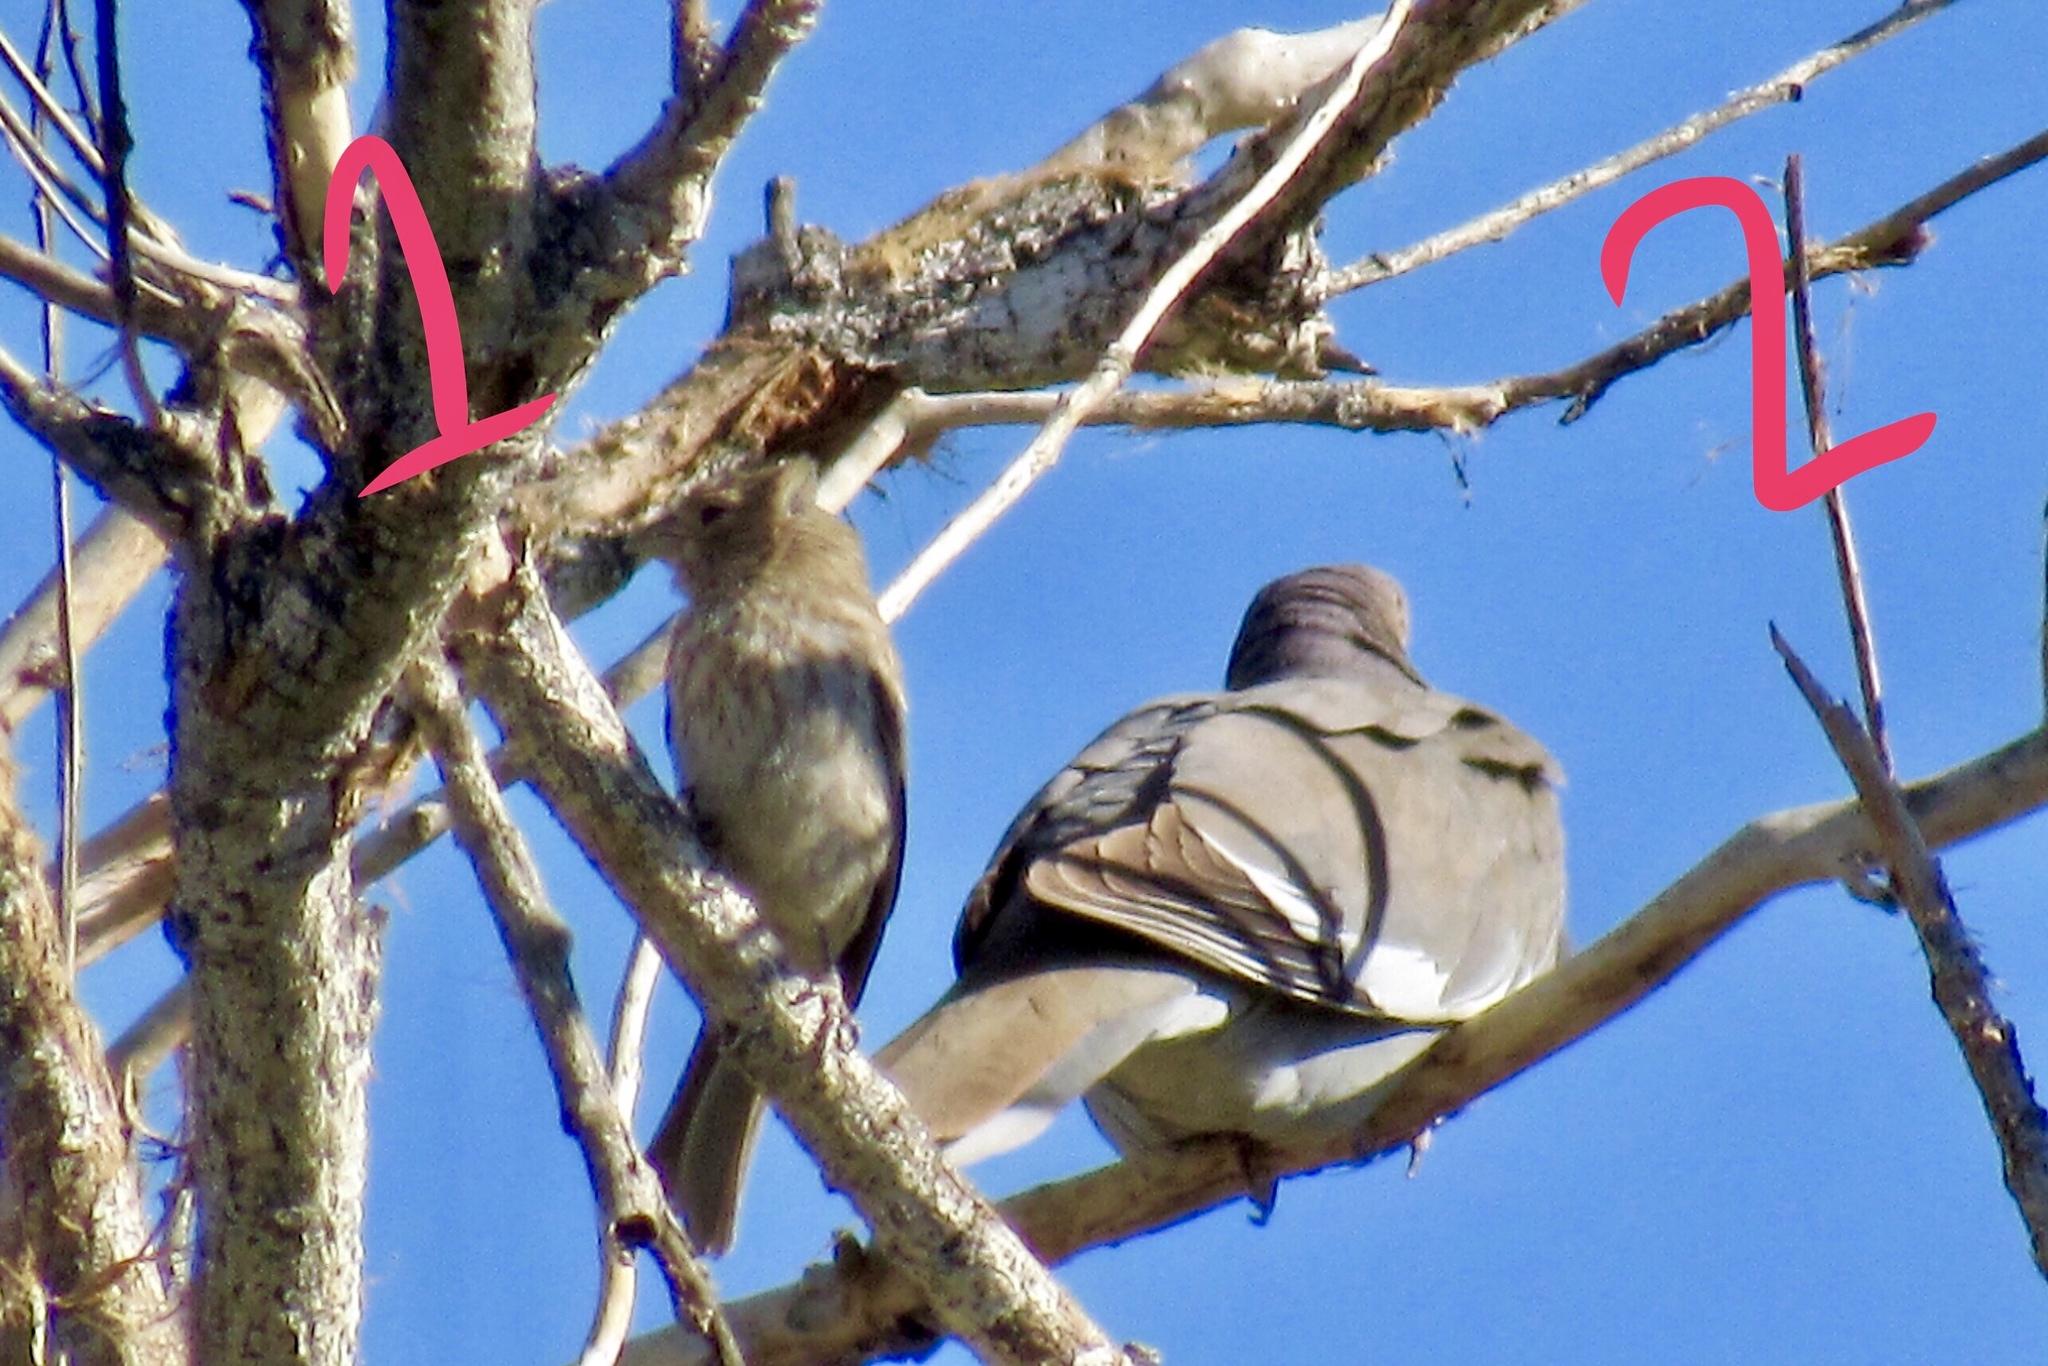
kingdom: Animalia
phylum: Chordata
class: Aves
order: Passeriformes
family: Fringillidae
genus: Haemorhous
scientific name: Haemorhous mexicanus
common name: House finch
